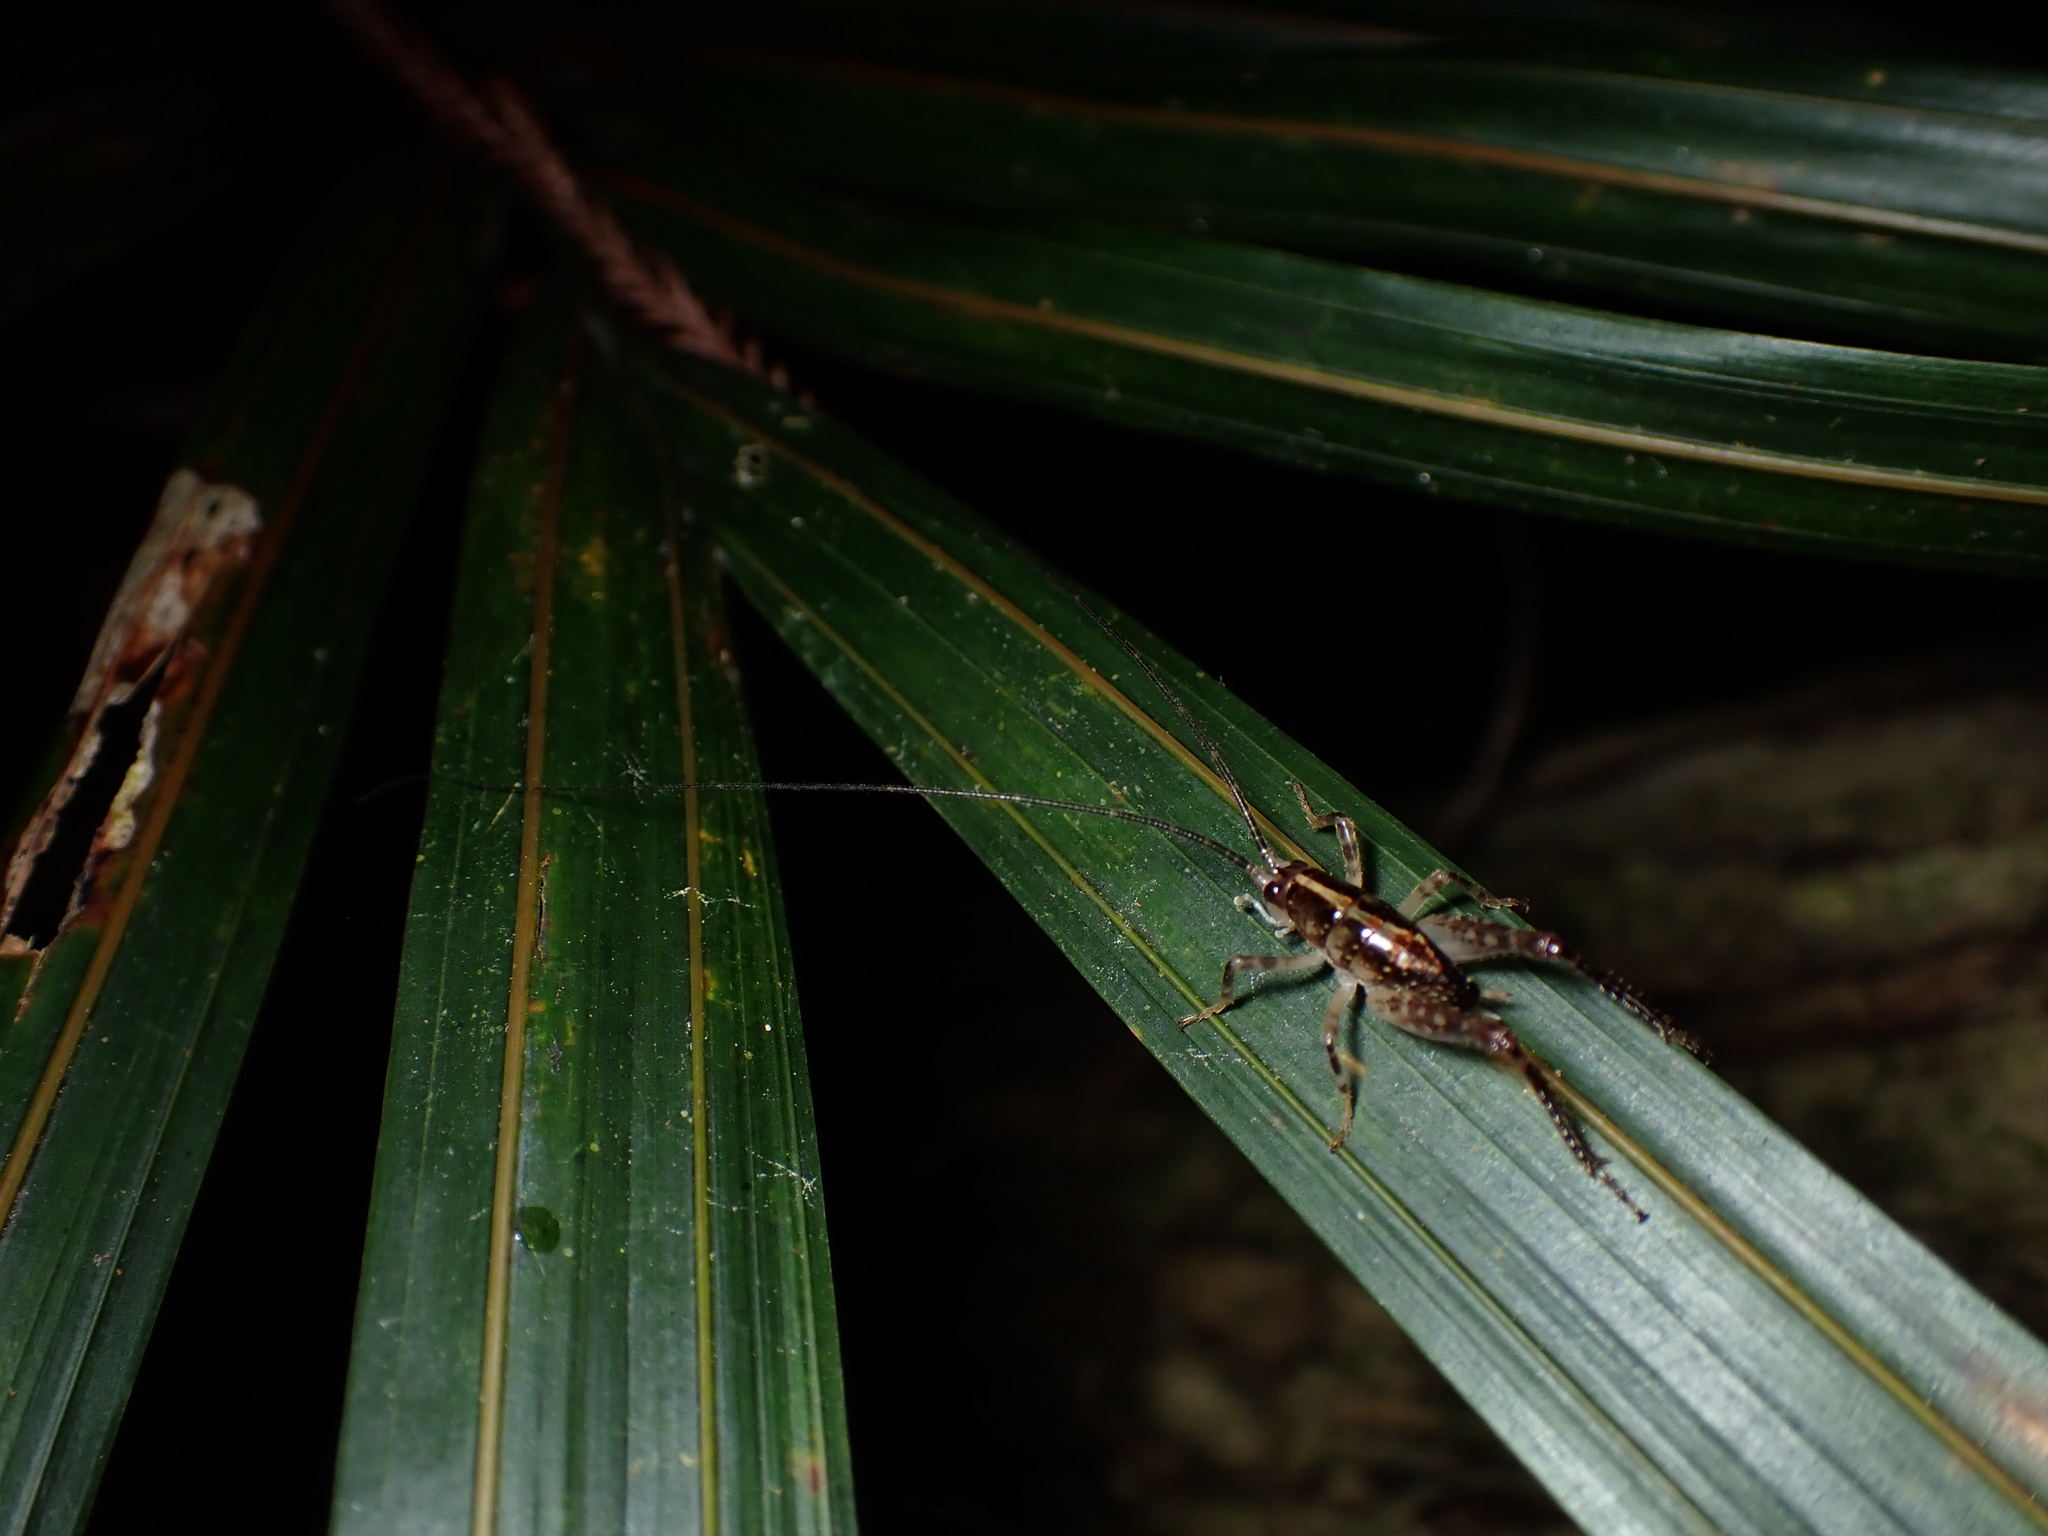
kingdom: Animalia
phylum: Arthropoda
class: Insecta
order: Orthoptera
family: Rhaphidophoridae
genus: Talitropsis
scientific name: Talitropsis sedilloti
